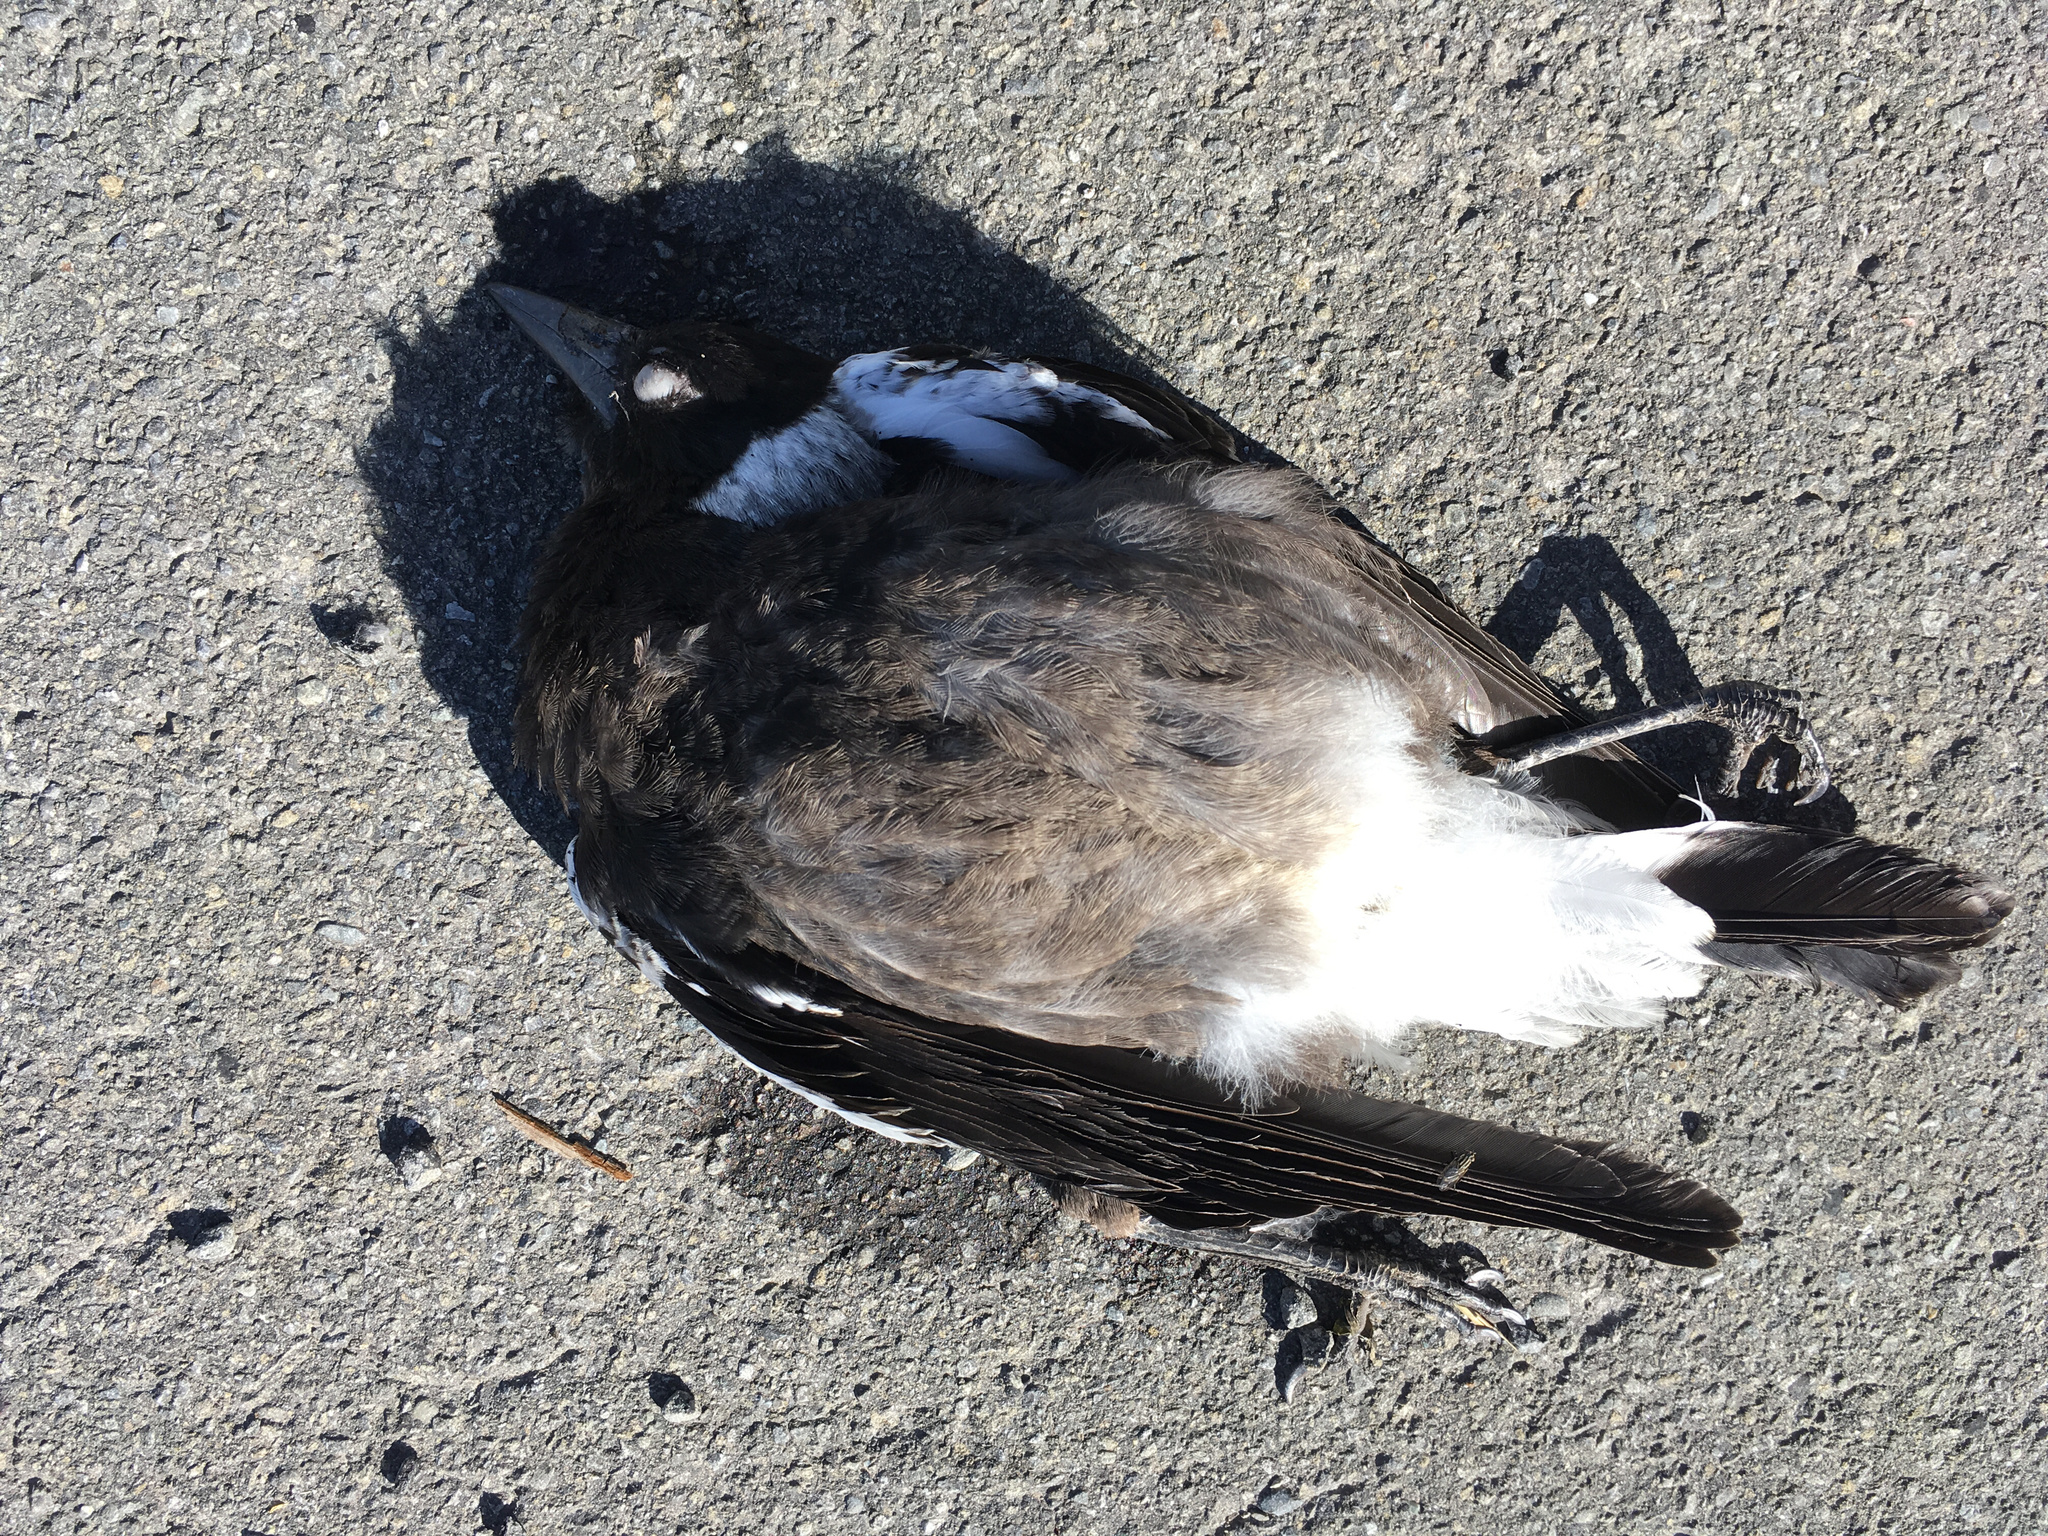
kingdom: Animalia
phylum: Chordata
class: Aves
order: Passeriformes
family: Cracticidae
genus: Gymnorhina
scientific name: Gymnorhina tibicen
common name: Australian magpie
